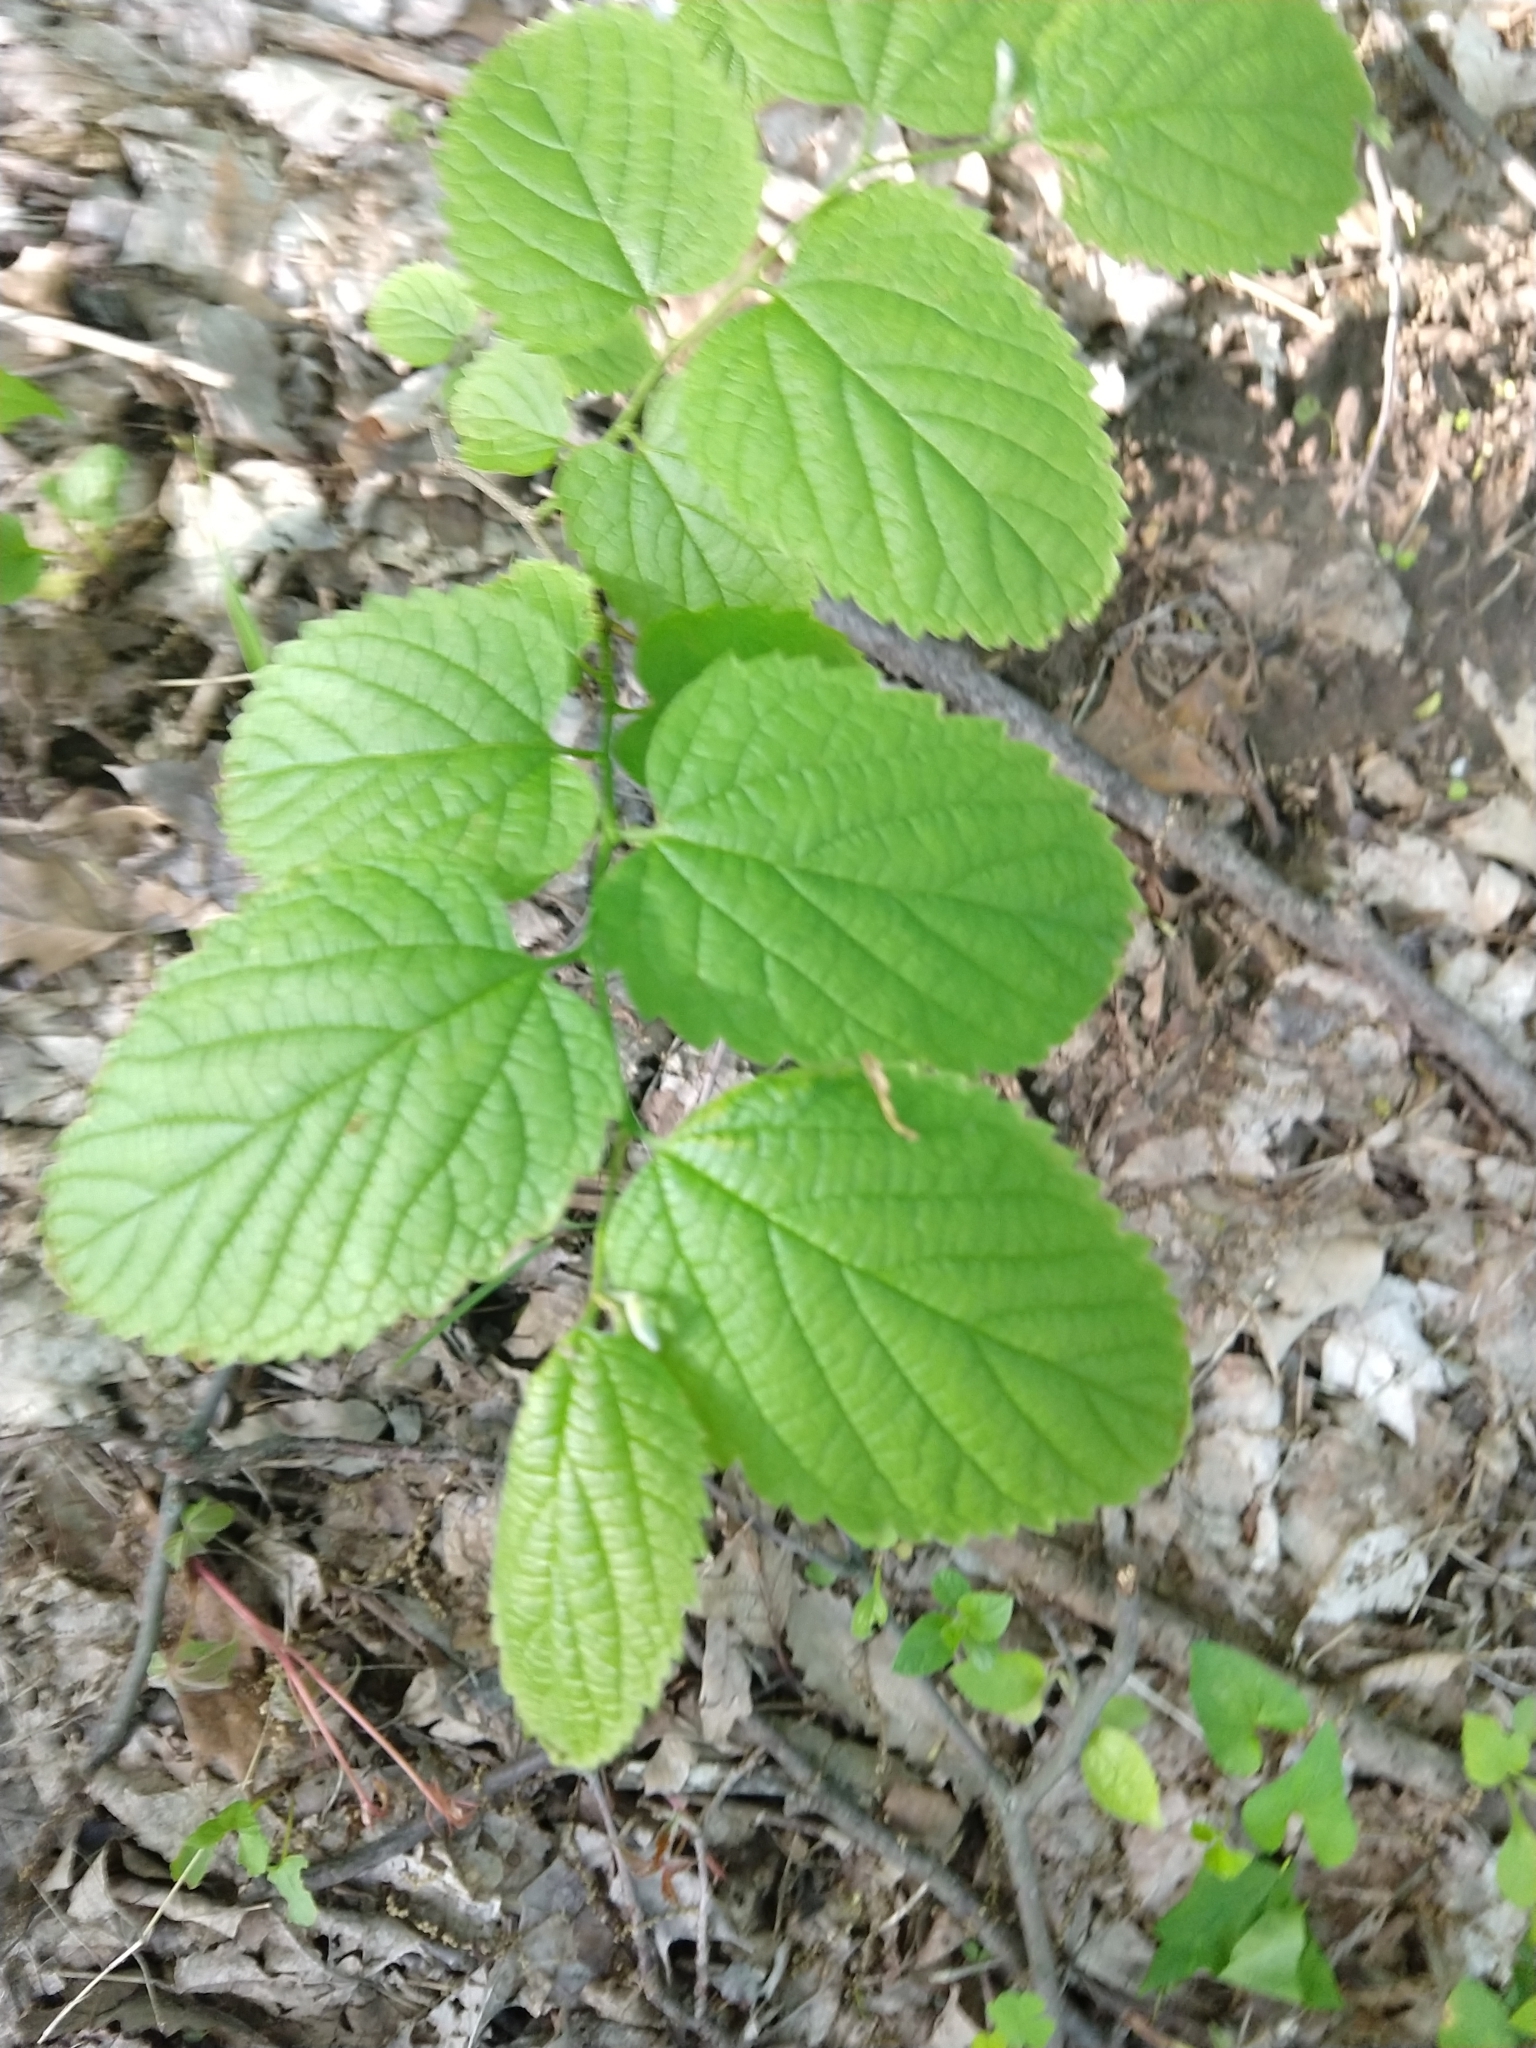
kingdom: Plantae
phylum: Tracheophyta
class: Magnoliopsida
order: Rosales
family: Cannabaceae
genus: Celtis
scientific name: Celtis occidentalis
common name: Common hackberry
